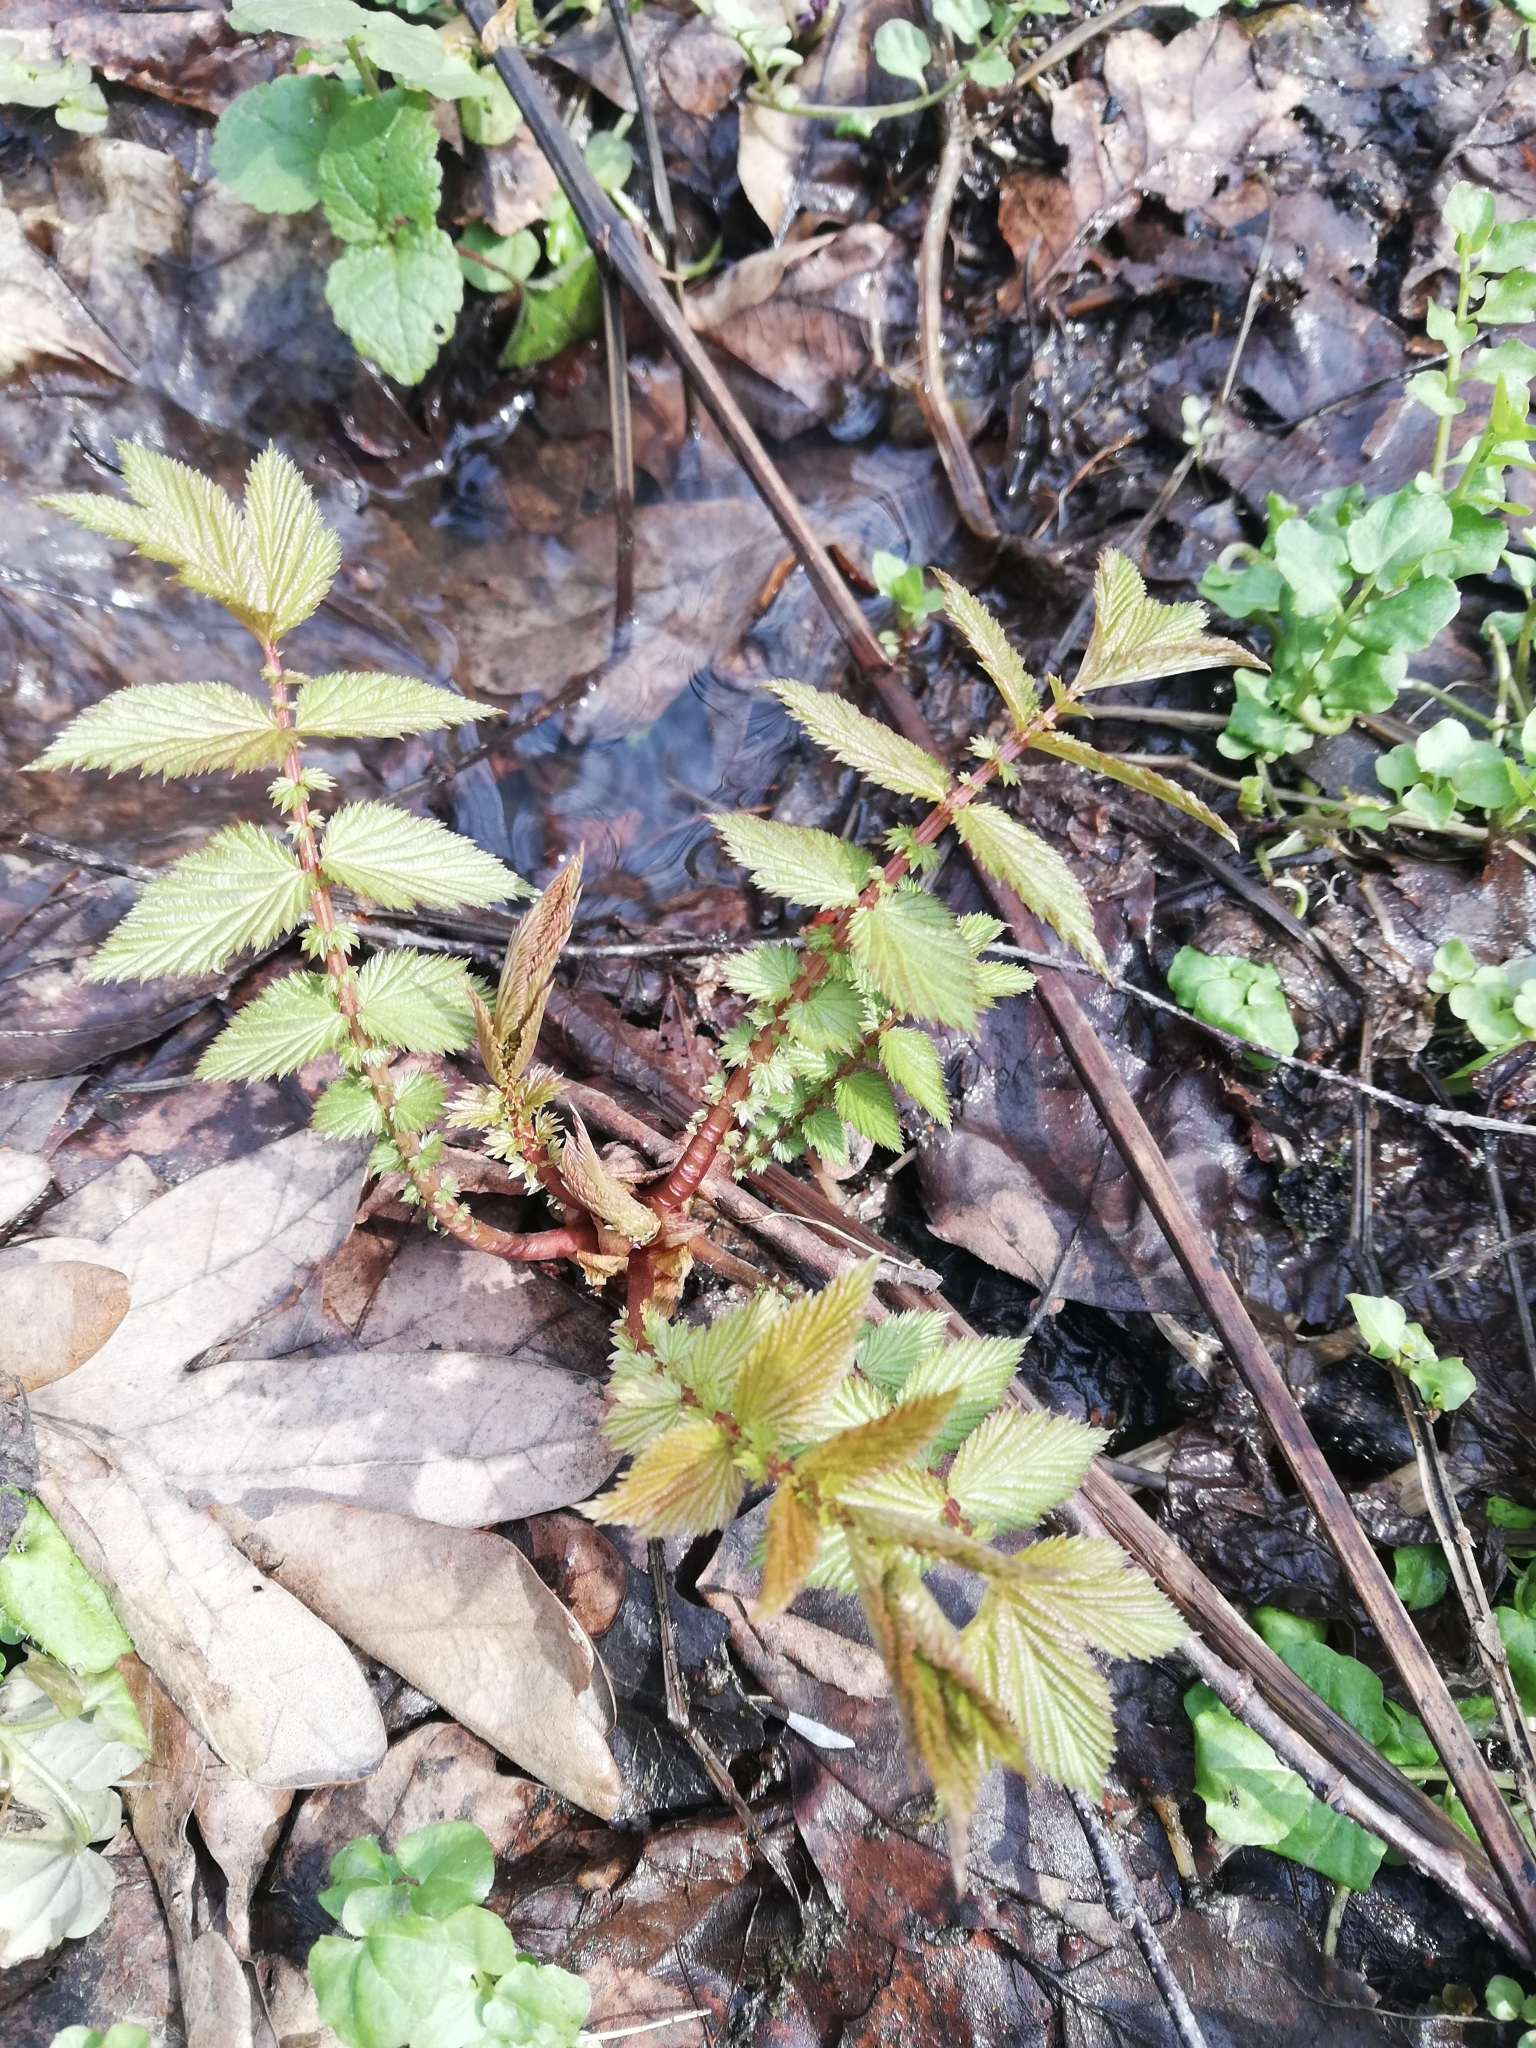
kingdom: Plantae
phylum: Tracheophyta
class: Magnoliopsida
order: Rosales
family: Rosaceae
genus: Filipendula
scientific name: Filipendula ulmaria
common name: Meadowsweet
